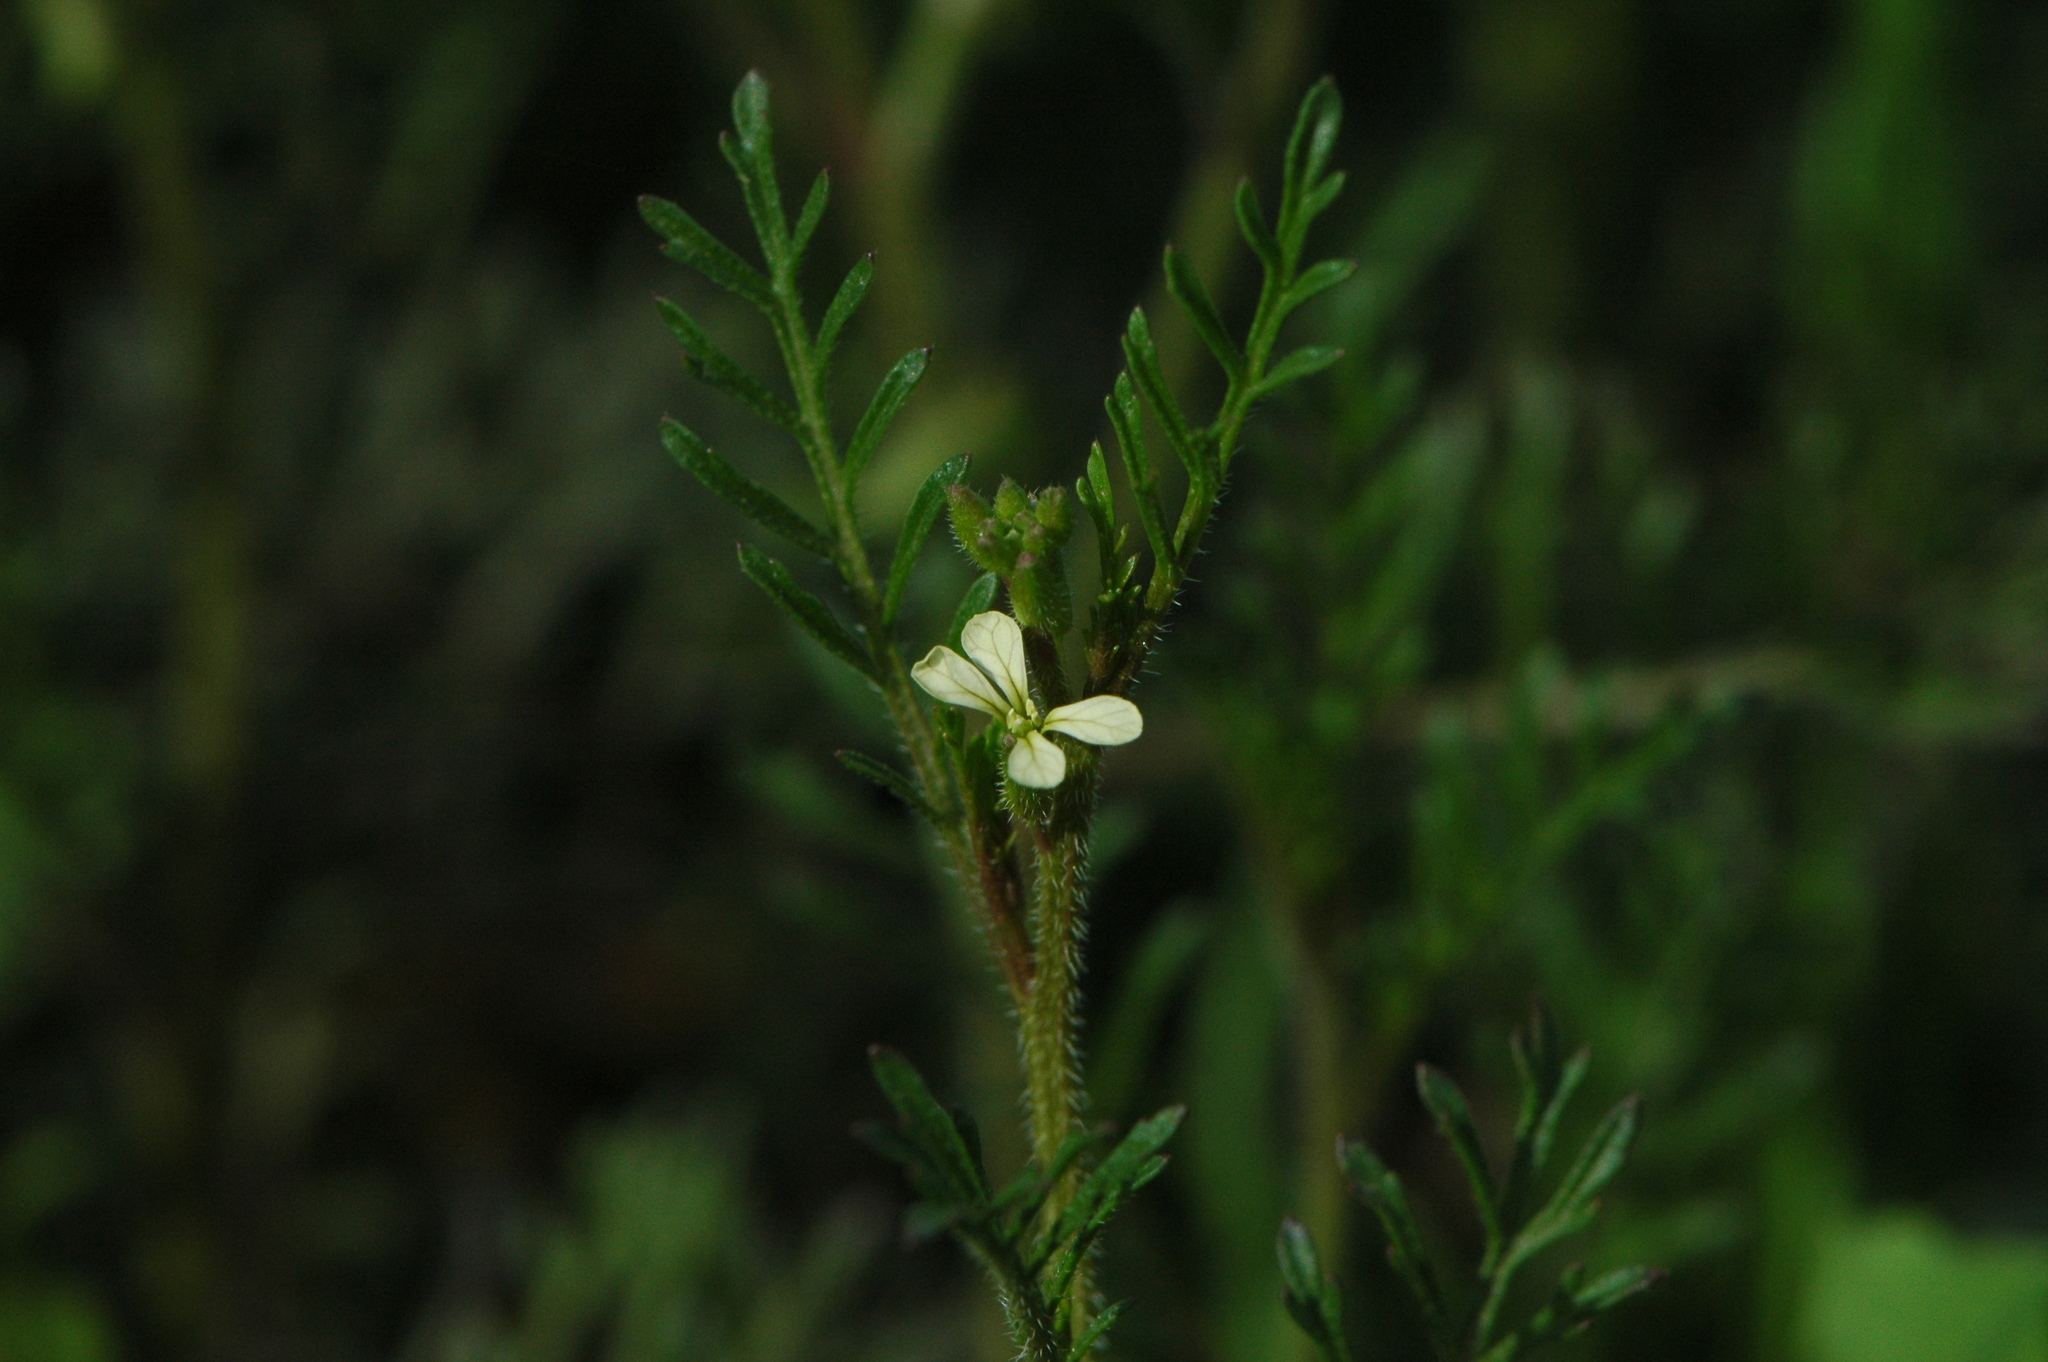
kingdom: Plantae
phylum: Tracheophyta
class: Magnoliopsida
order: Brassicales
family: Brassicaceae
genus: Carrichtera
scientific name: Carrichtera annua
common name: Cress rocket
